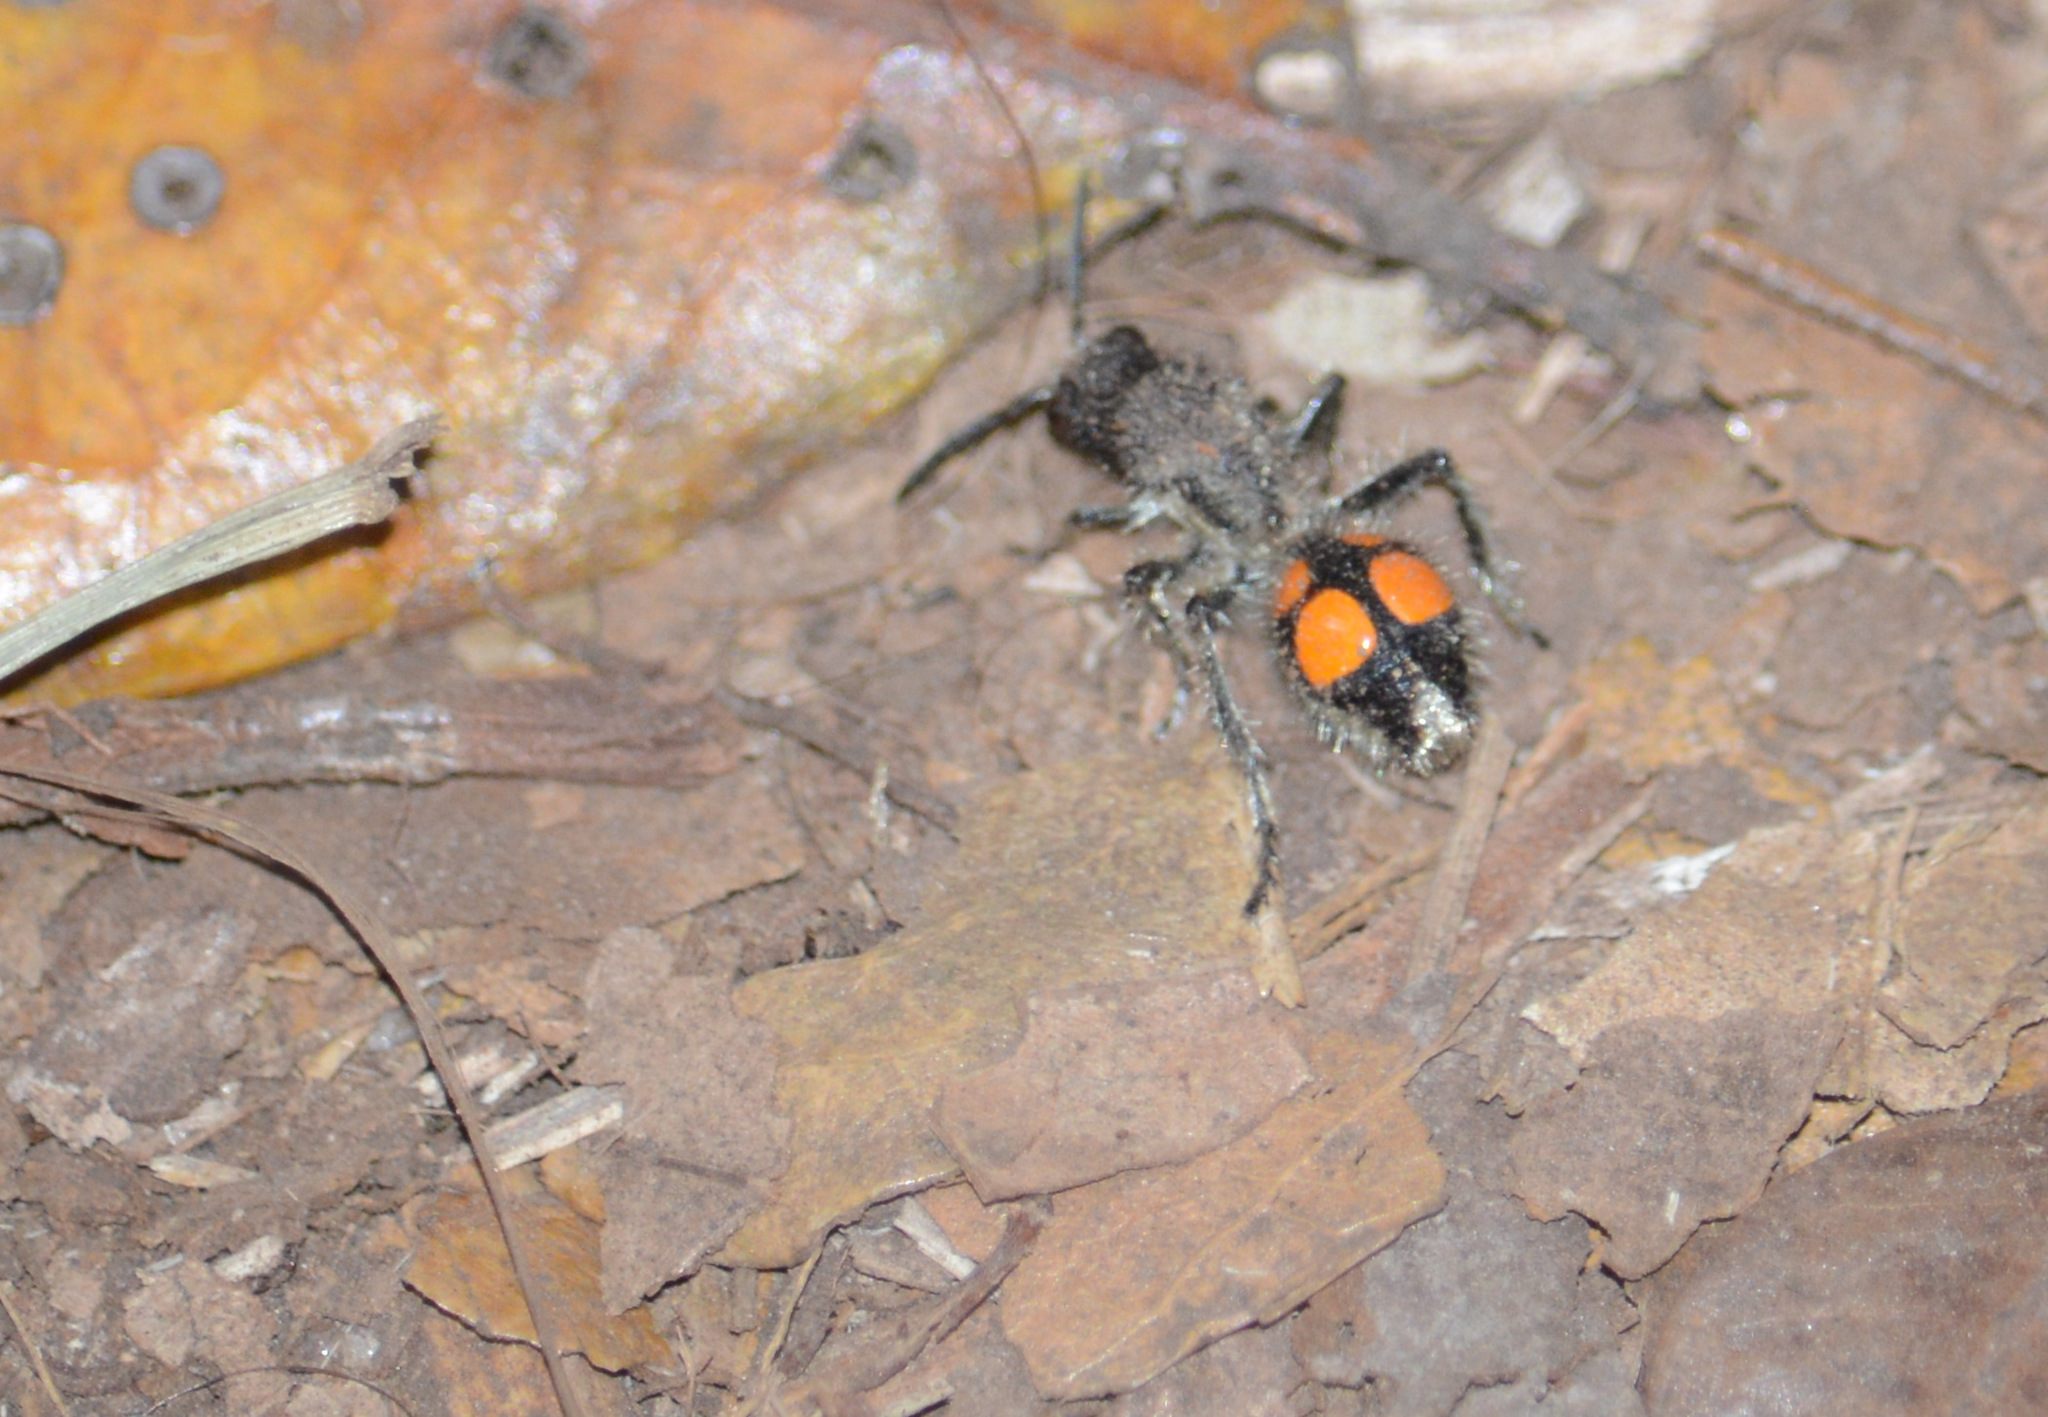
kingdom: Animalia
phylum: Arthropoda
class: Insecta
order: Hymenoptera
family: Mutillidae
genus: Traumatomutilla
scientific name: Traumatomutilla
